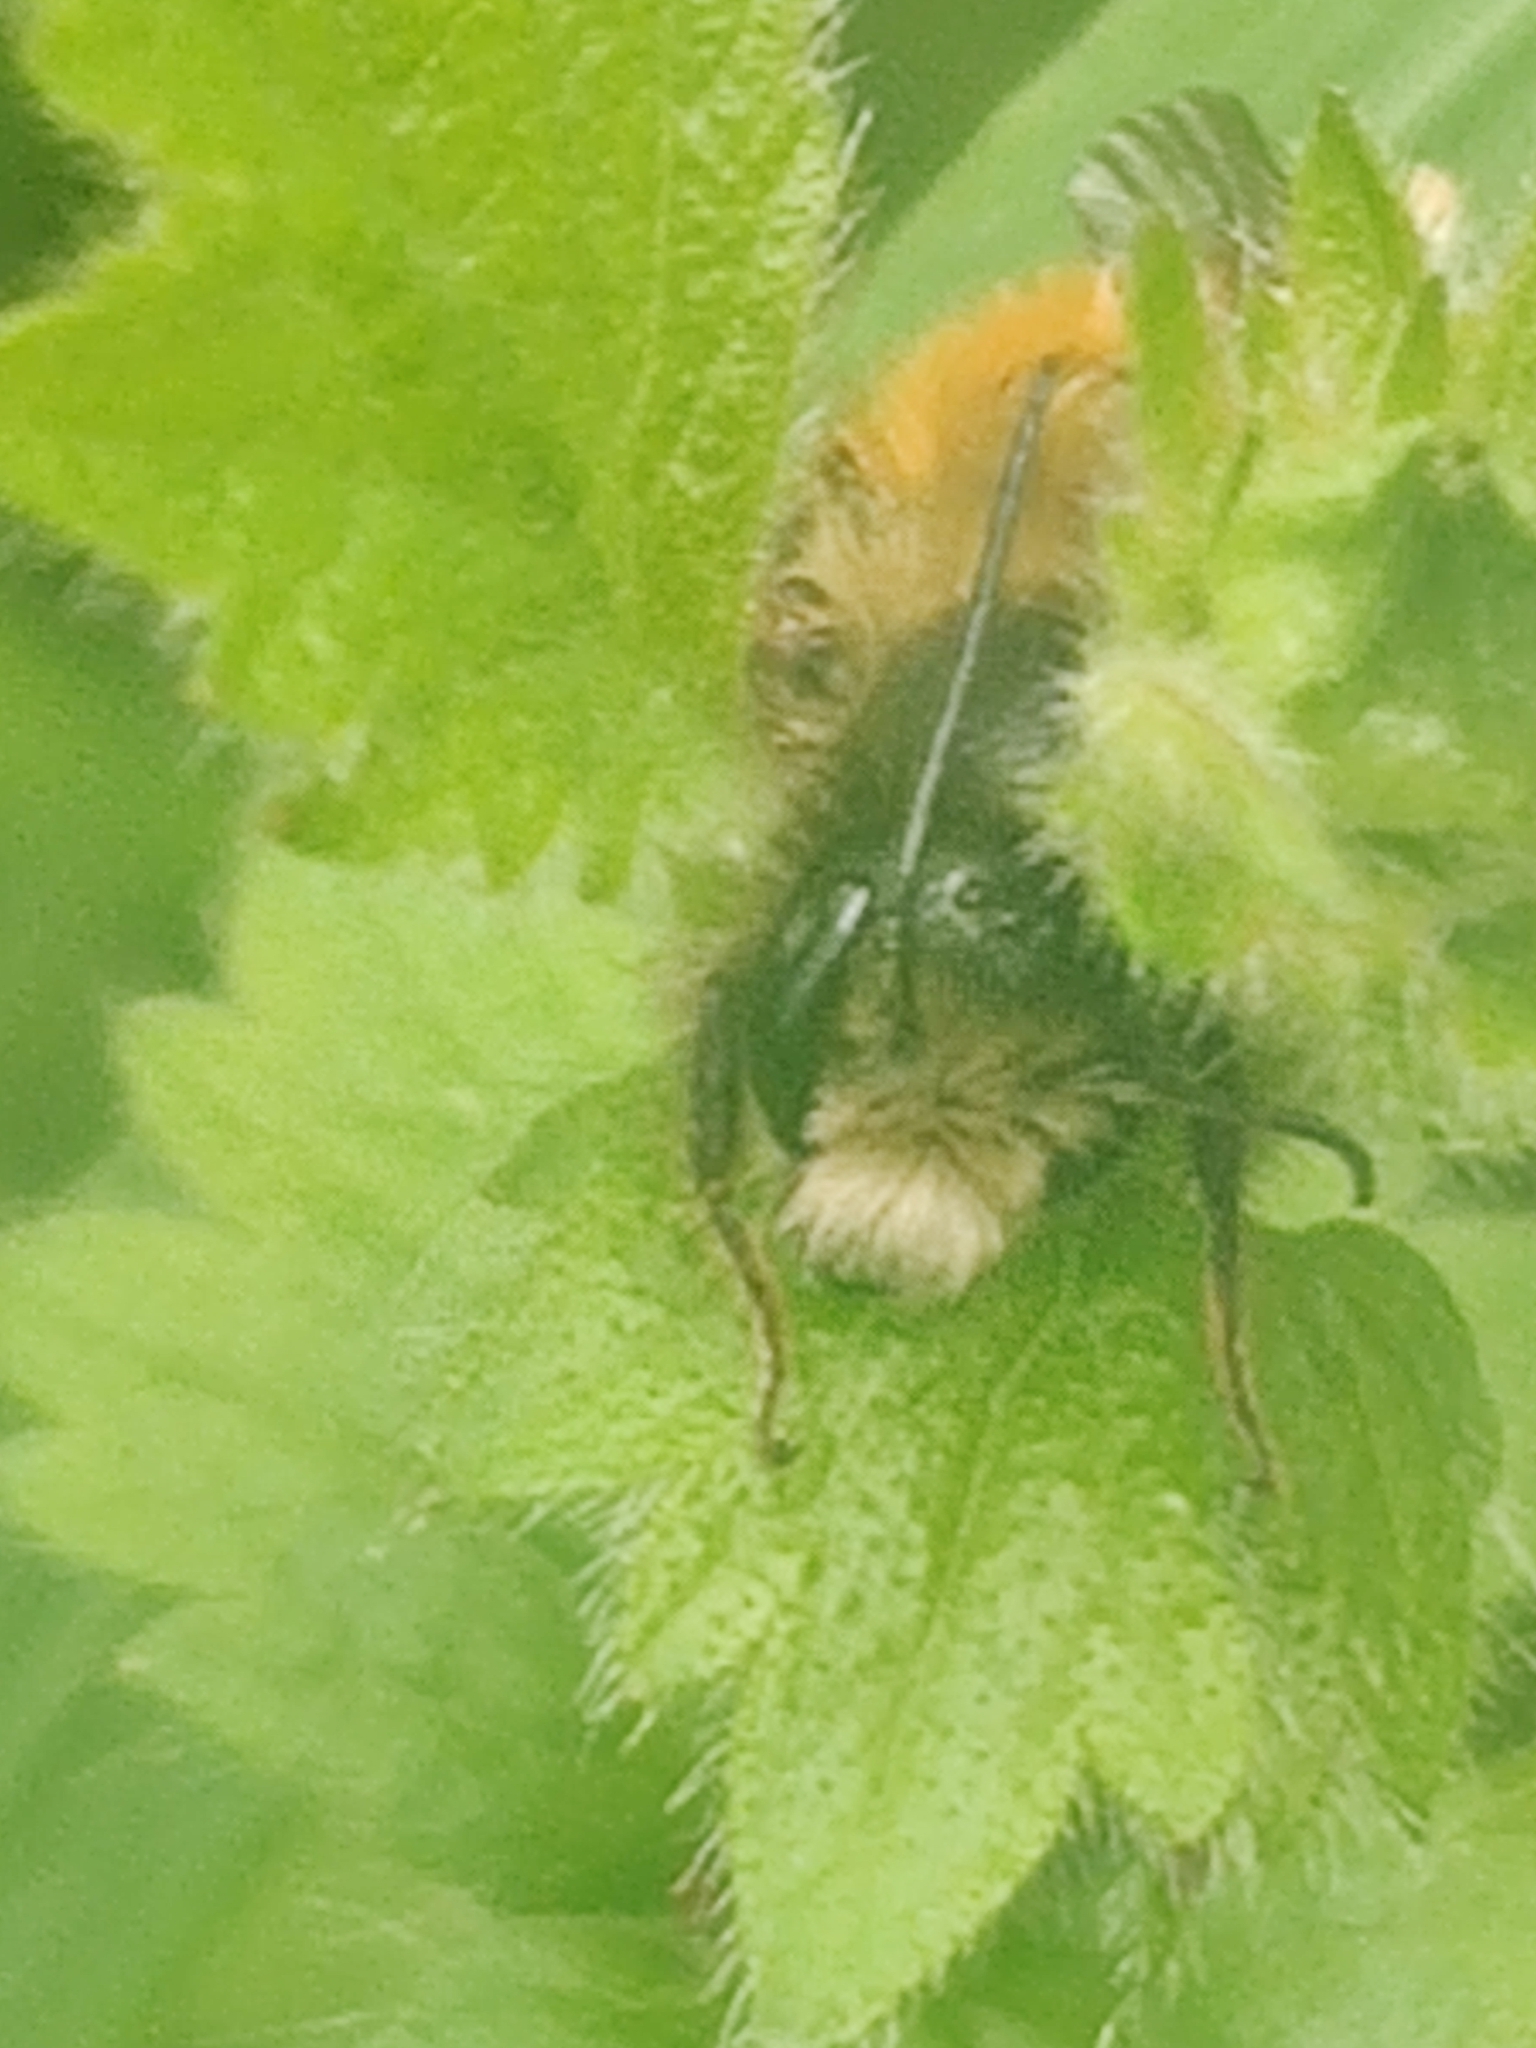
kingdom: Animalia
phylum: Arthropoda
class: Insecta
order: Hymenoptera
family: Megachilidae
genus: Osmia
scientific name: Osmia bicornis
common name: Red mason bee
